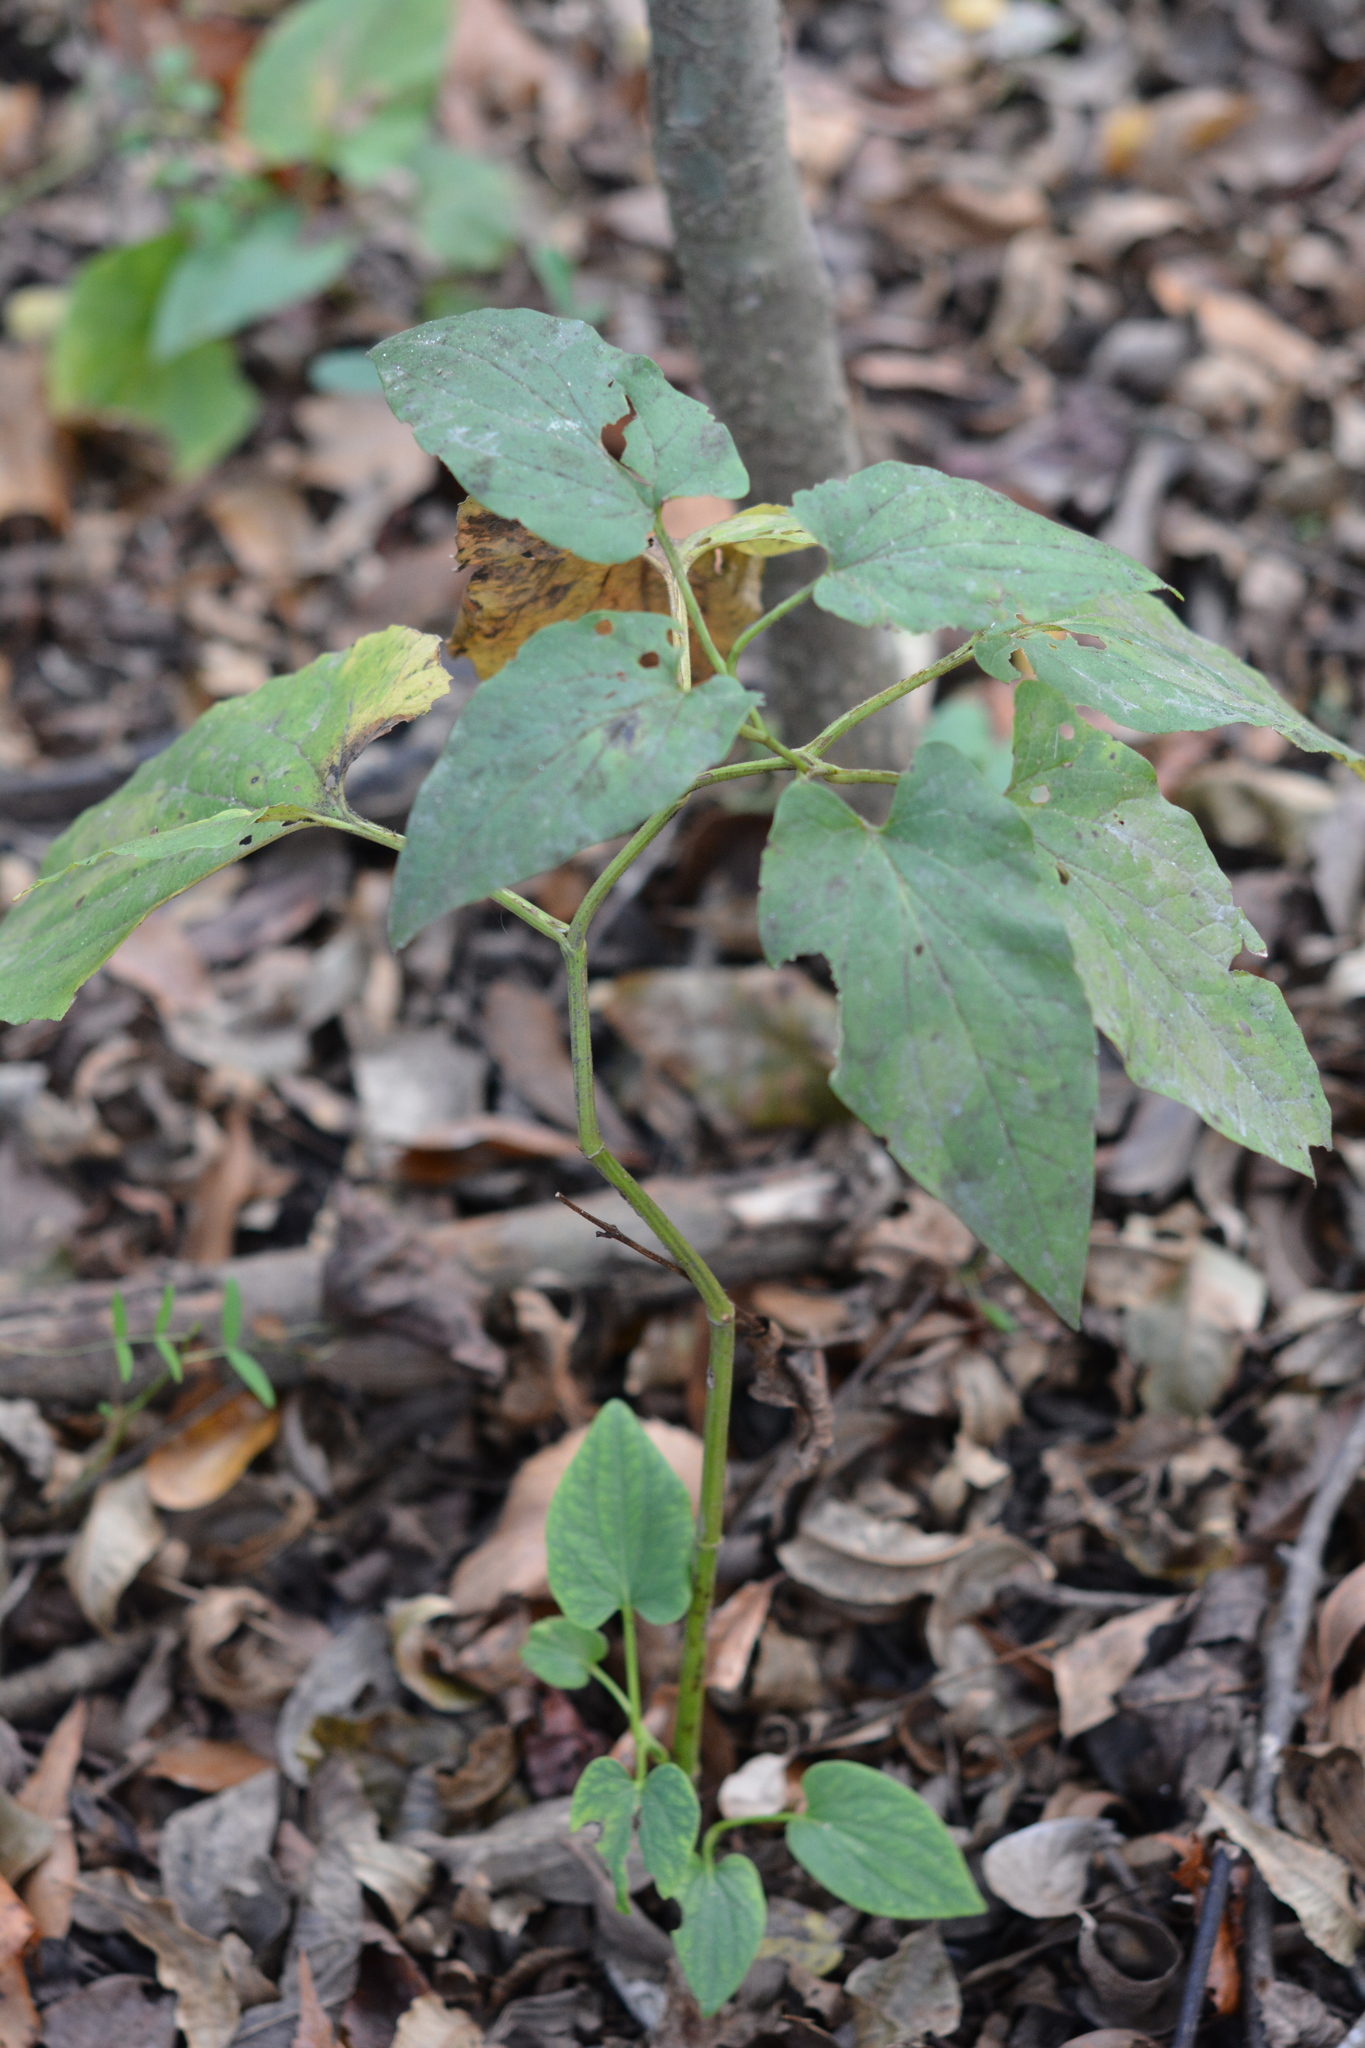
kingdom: Plantae
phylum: Tracheophyta
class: Magnoliopsida
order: Piperales
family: Saururaceae
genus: Saururus
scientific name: Saururus cernuus
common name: Lizard's-tail
